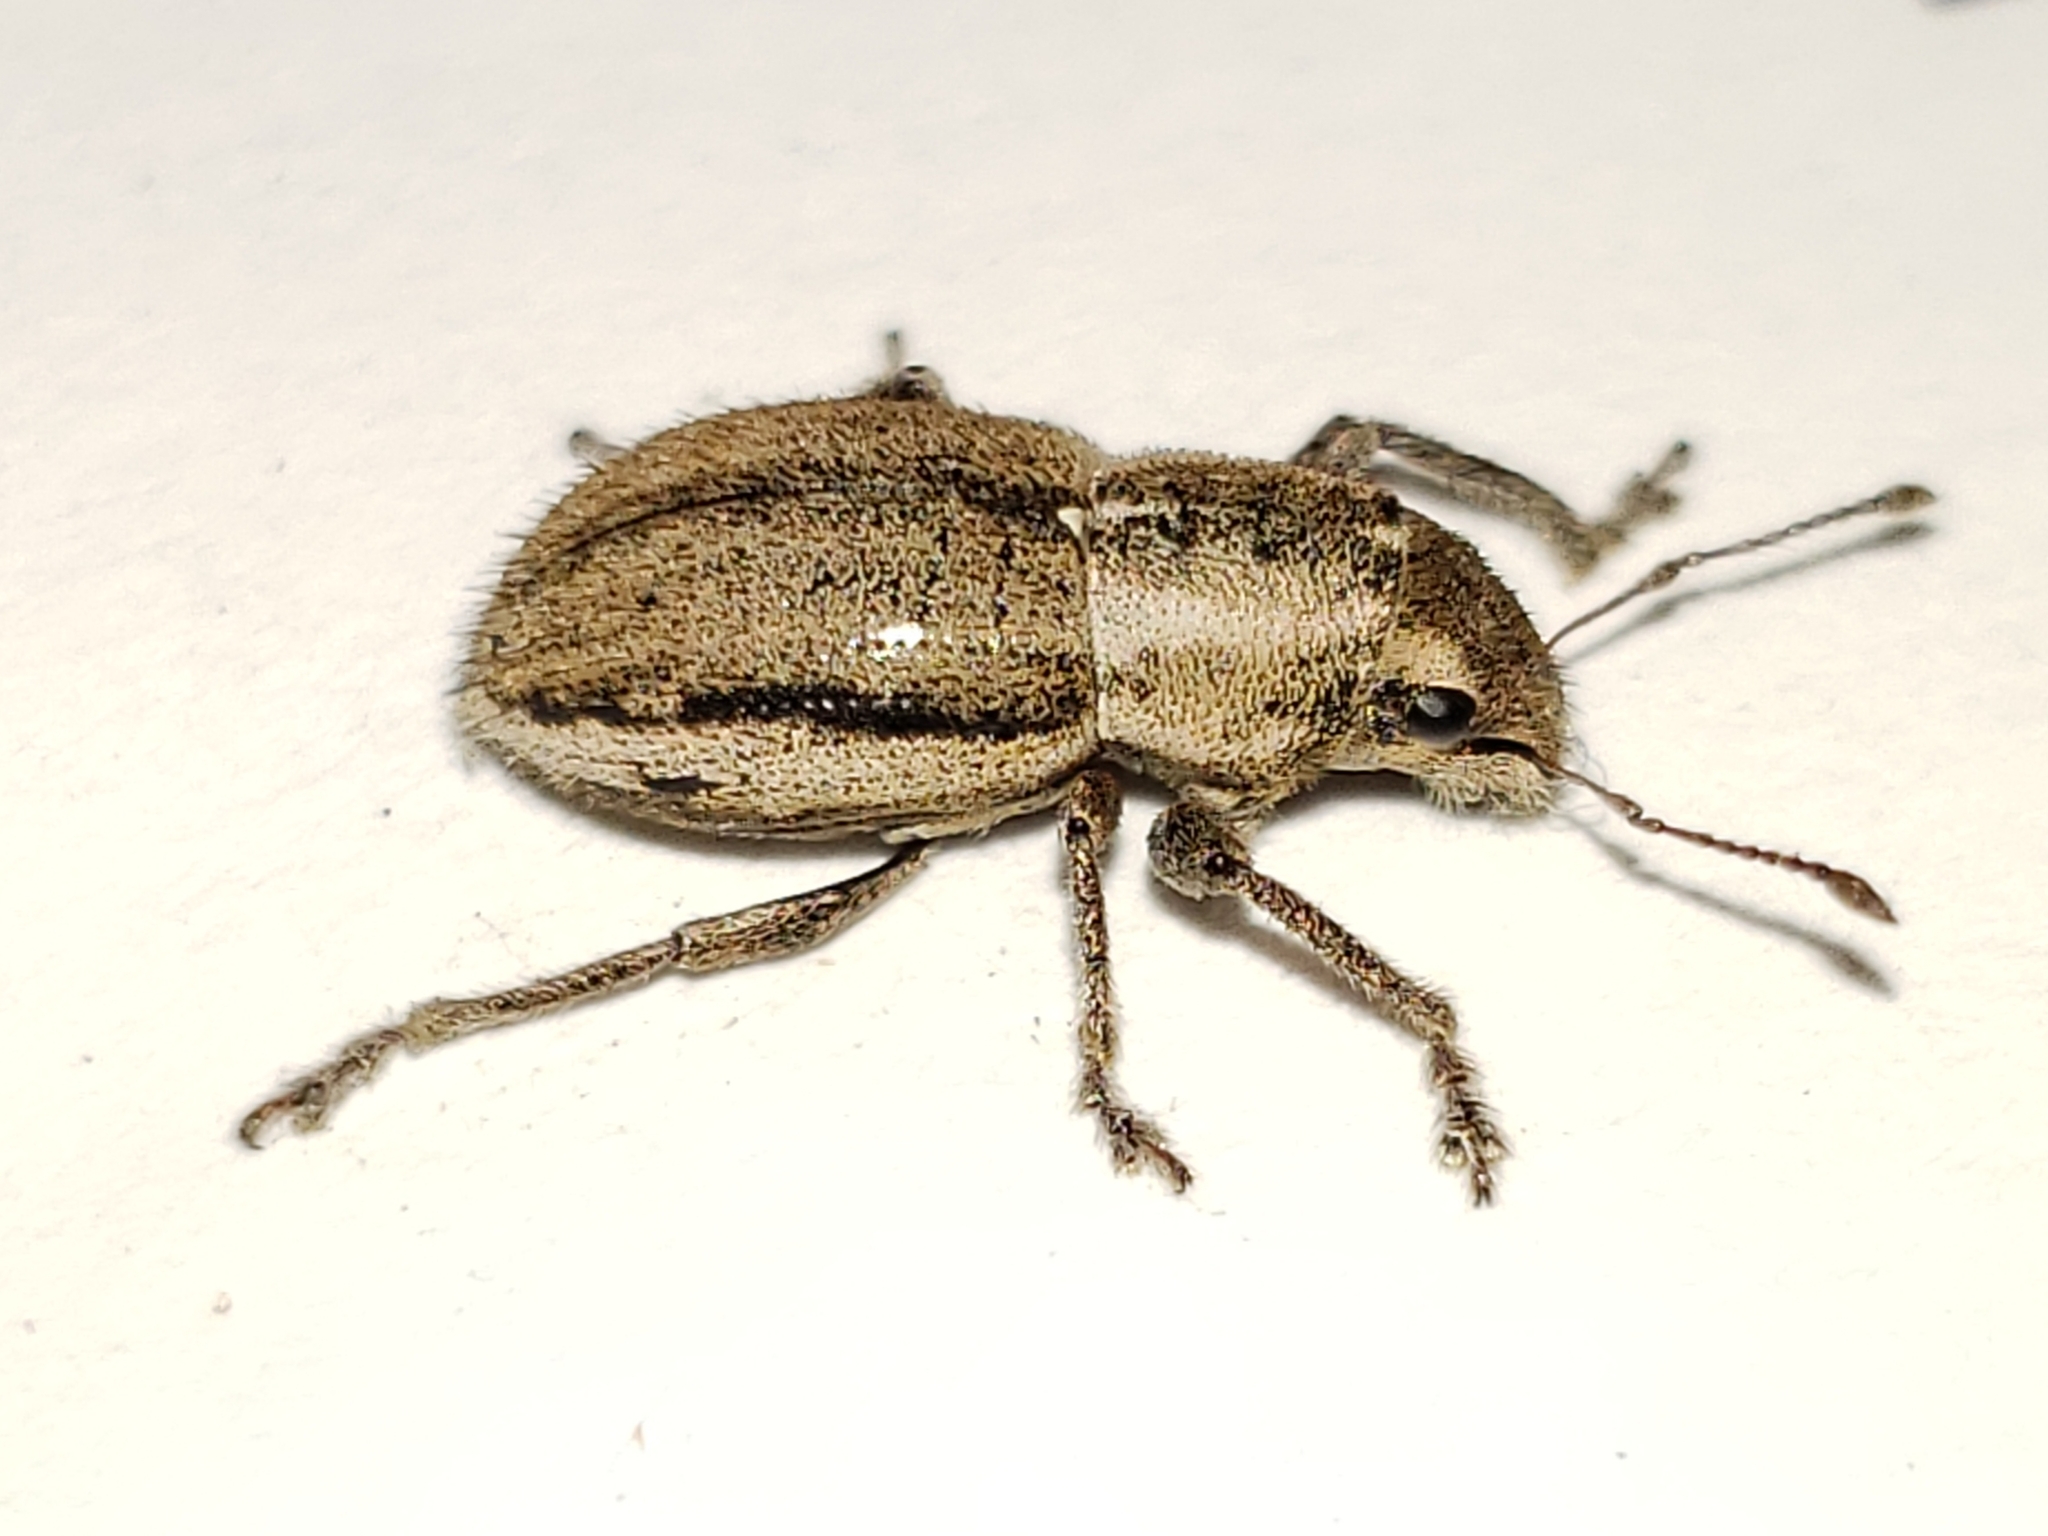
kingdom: Animalia
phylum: Arthropoda
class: Insecta
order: Coleoptera
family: Curculionidae
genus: Naupactus
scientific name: Naupactus peregrinus
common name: Whitefringed beetle
